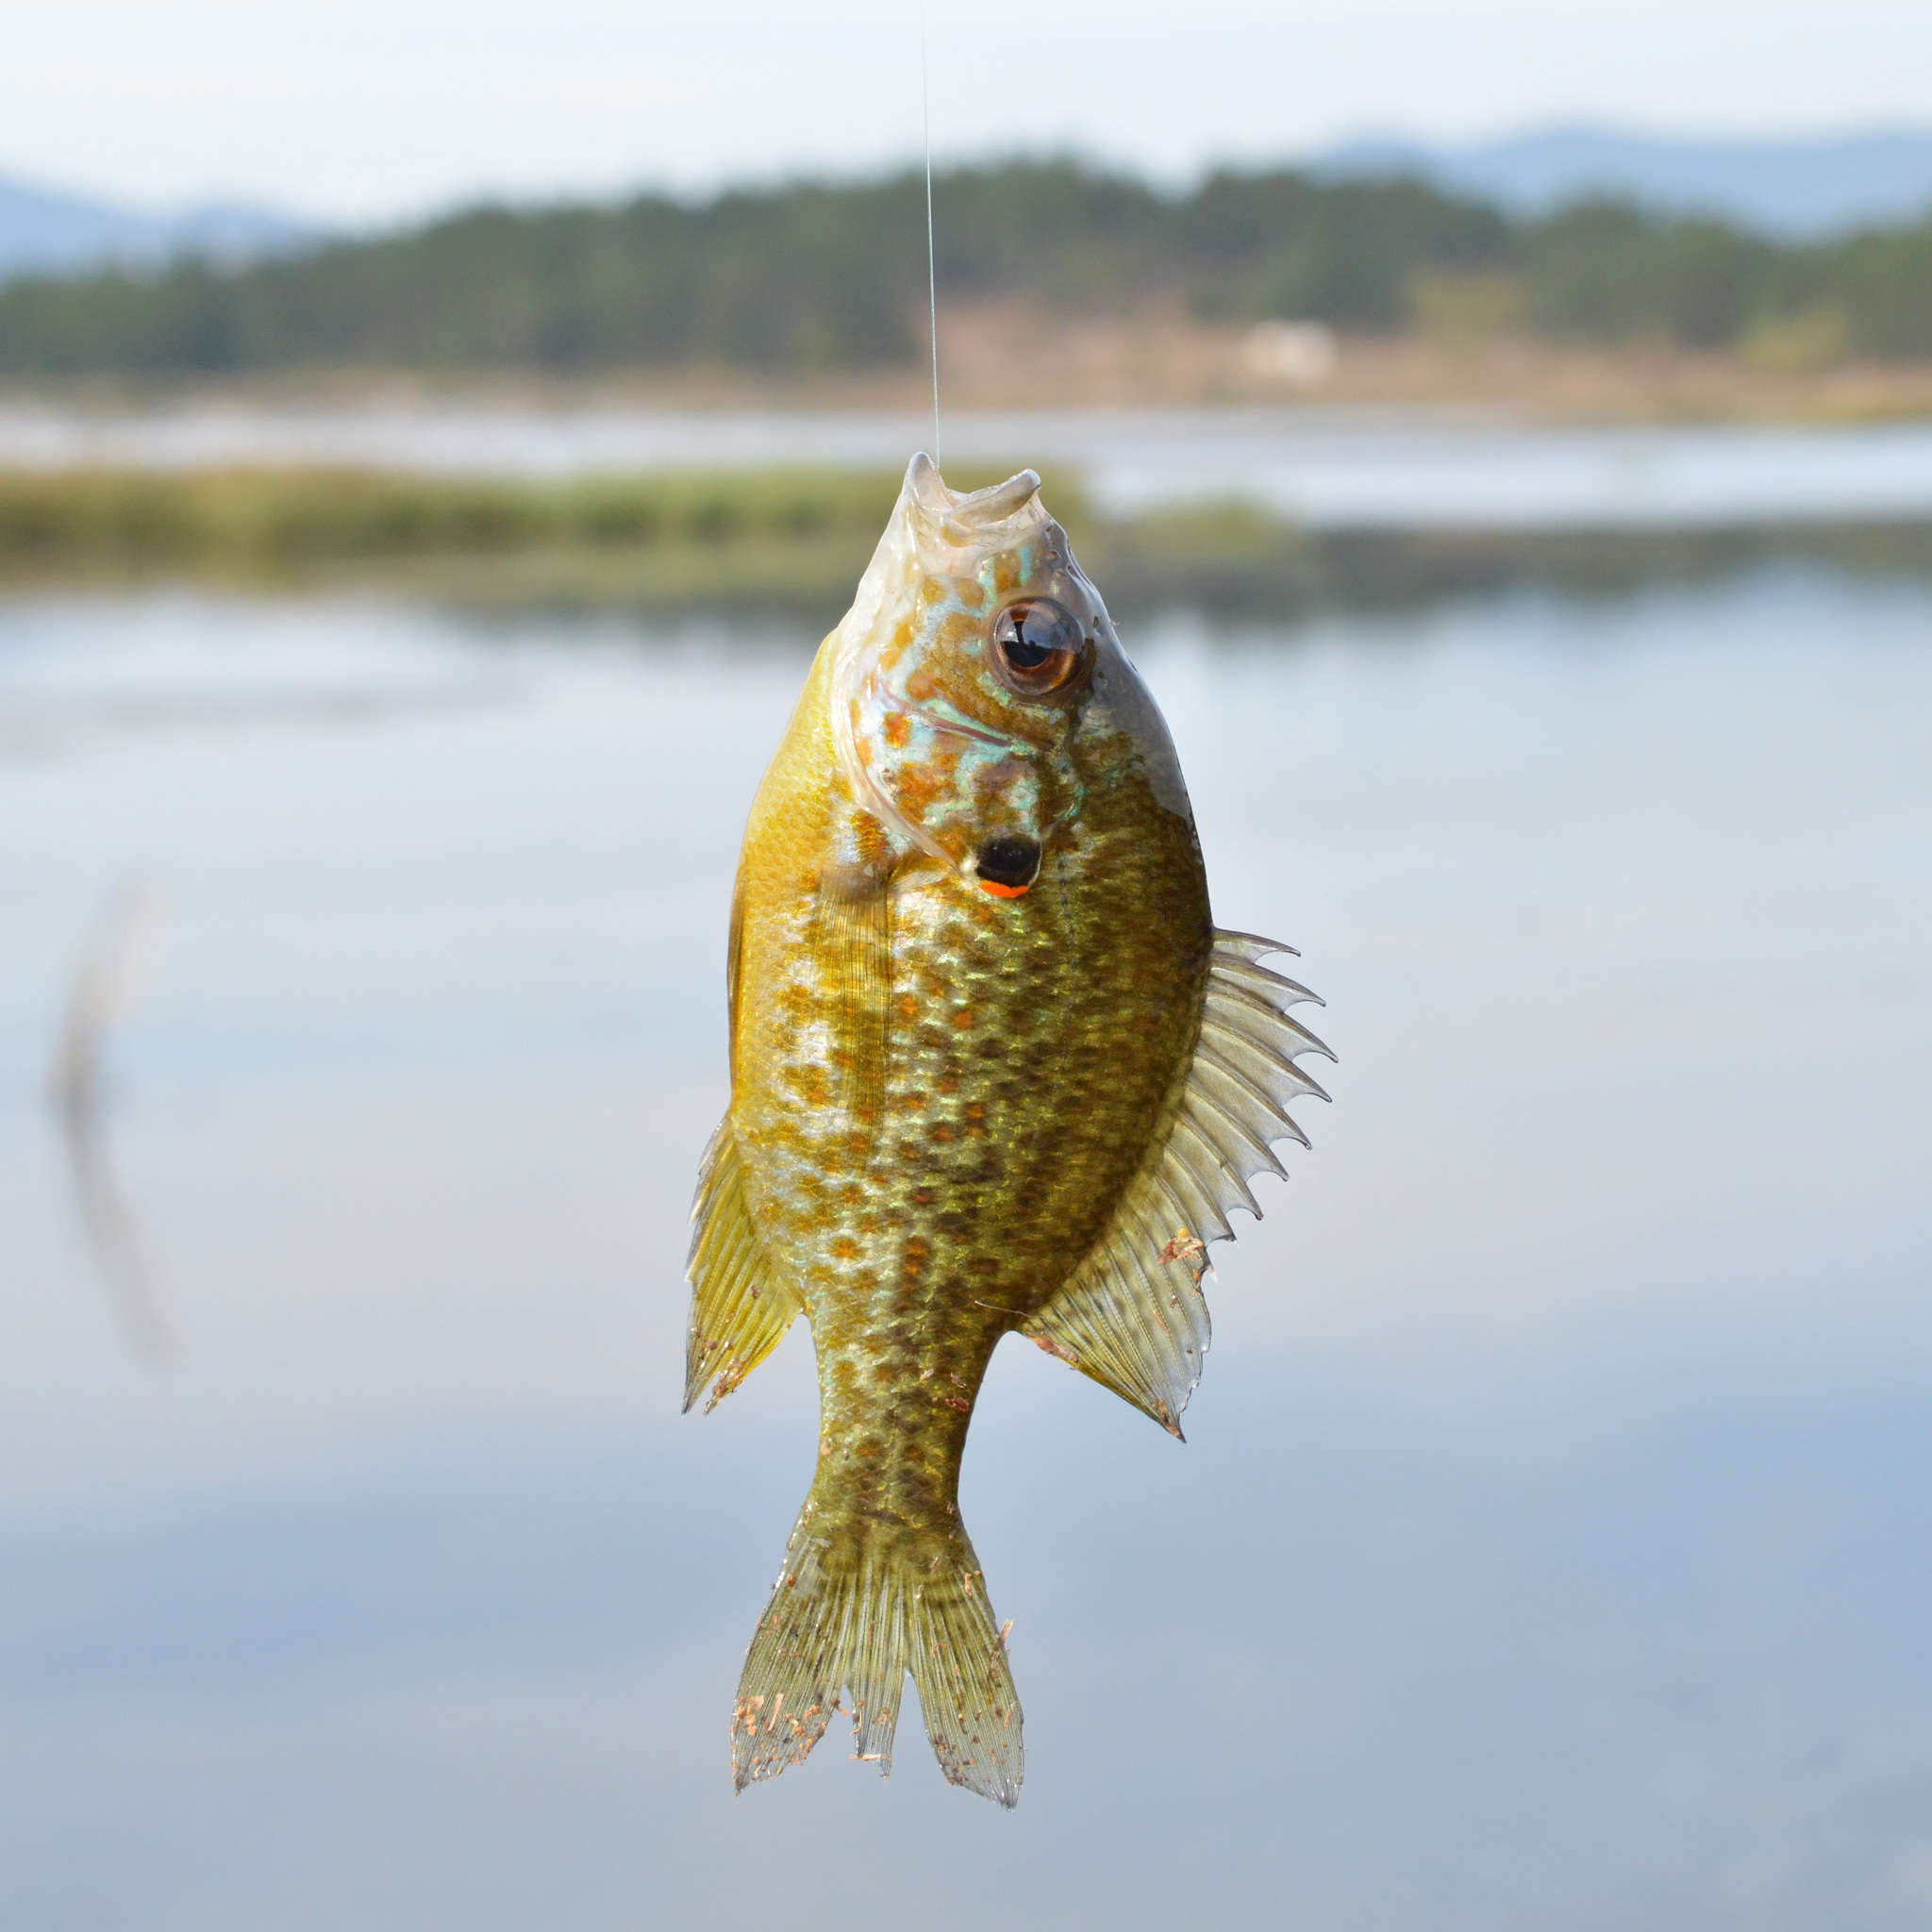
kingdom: Animalia
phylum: Chordata
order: Perciformes
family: Centrarchidae
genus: Lepomis
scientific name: Lepomis gibbosus
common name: Pumpkinseed
